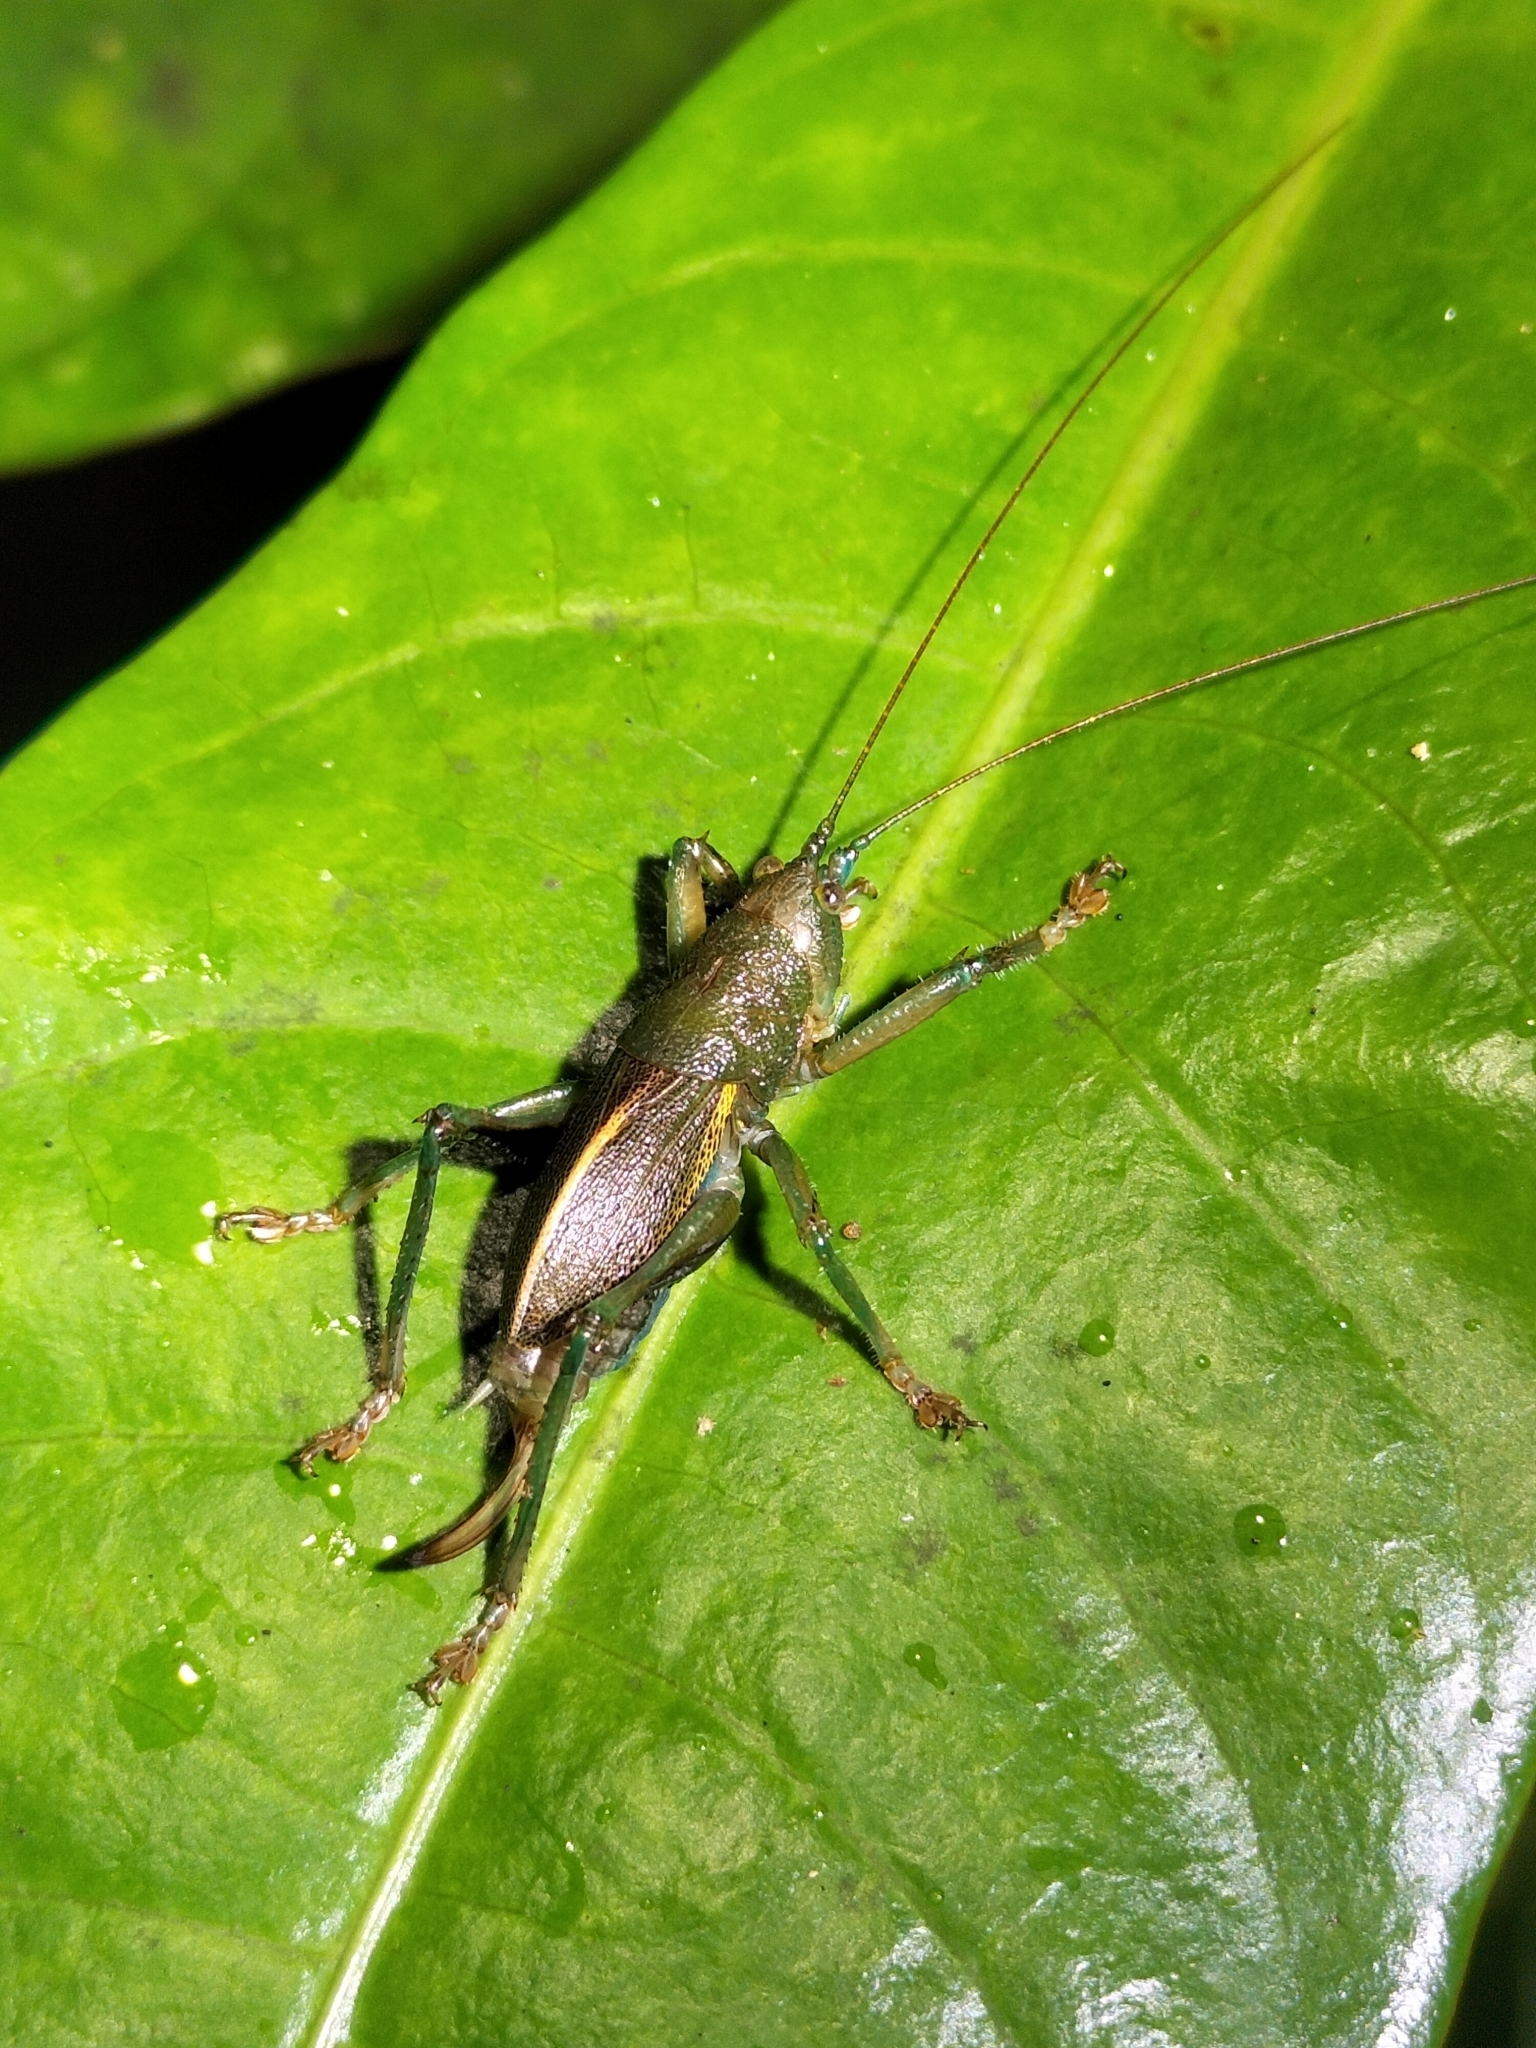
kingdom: Animalia
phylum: Arthropoda
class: Insecta
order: Orthoptera
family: Tettigoniidae
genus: Ingrischagraecia
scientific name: Ingrischagraecia iterika
